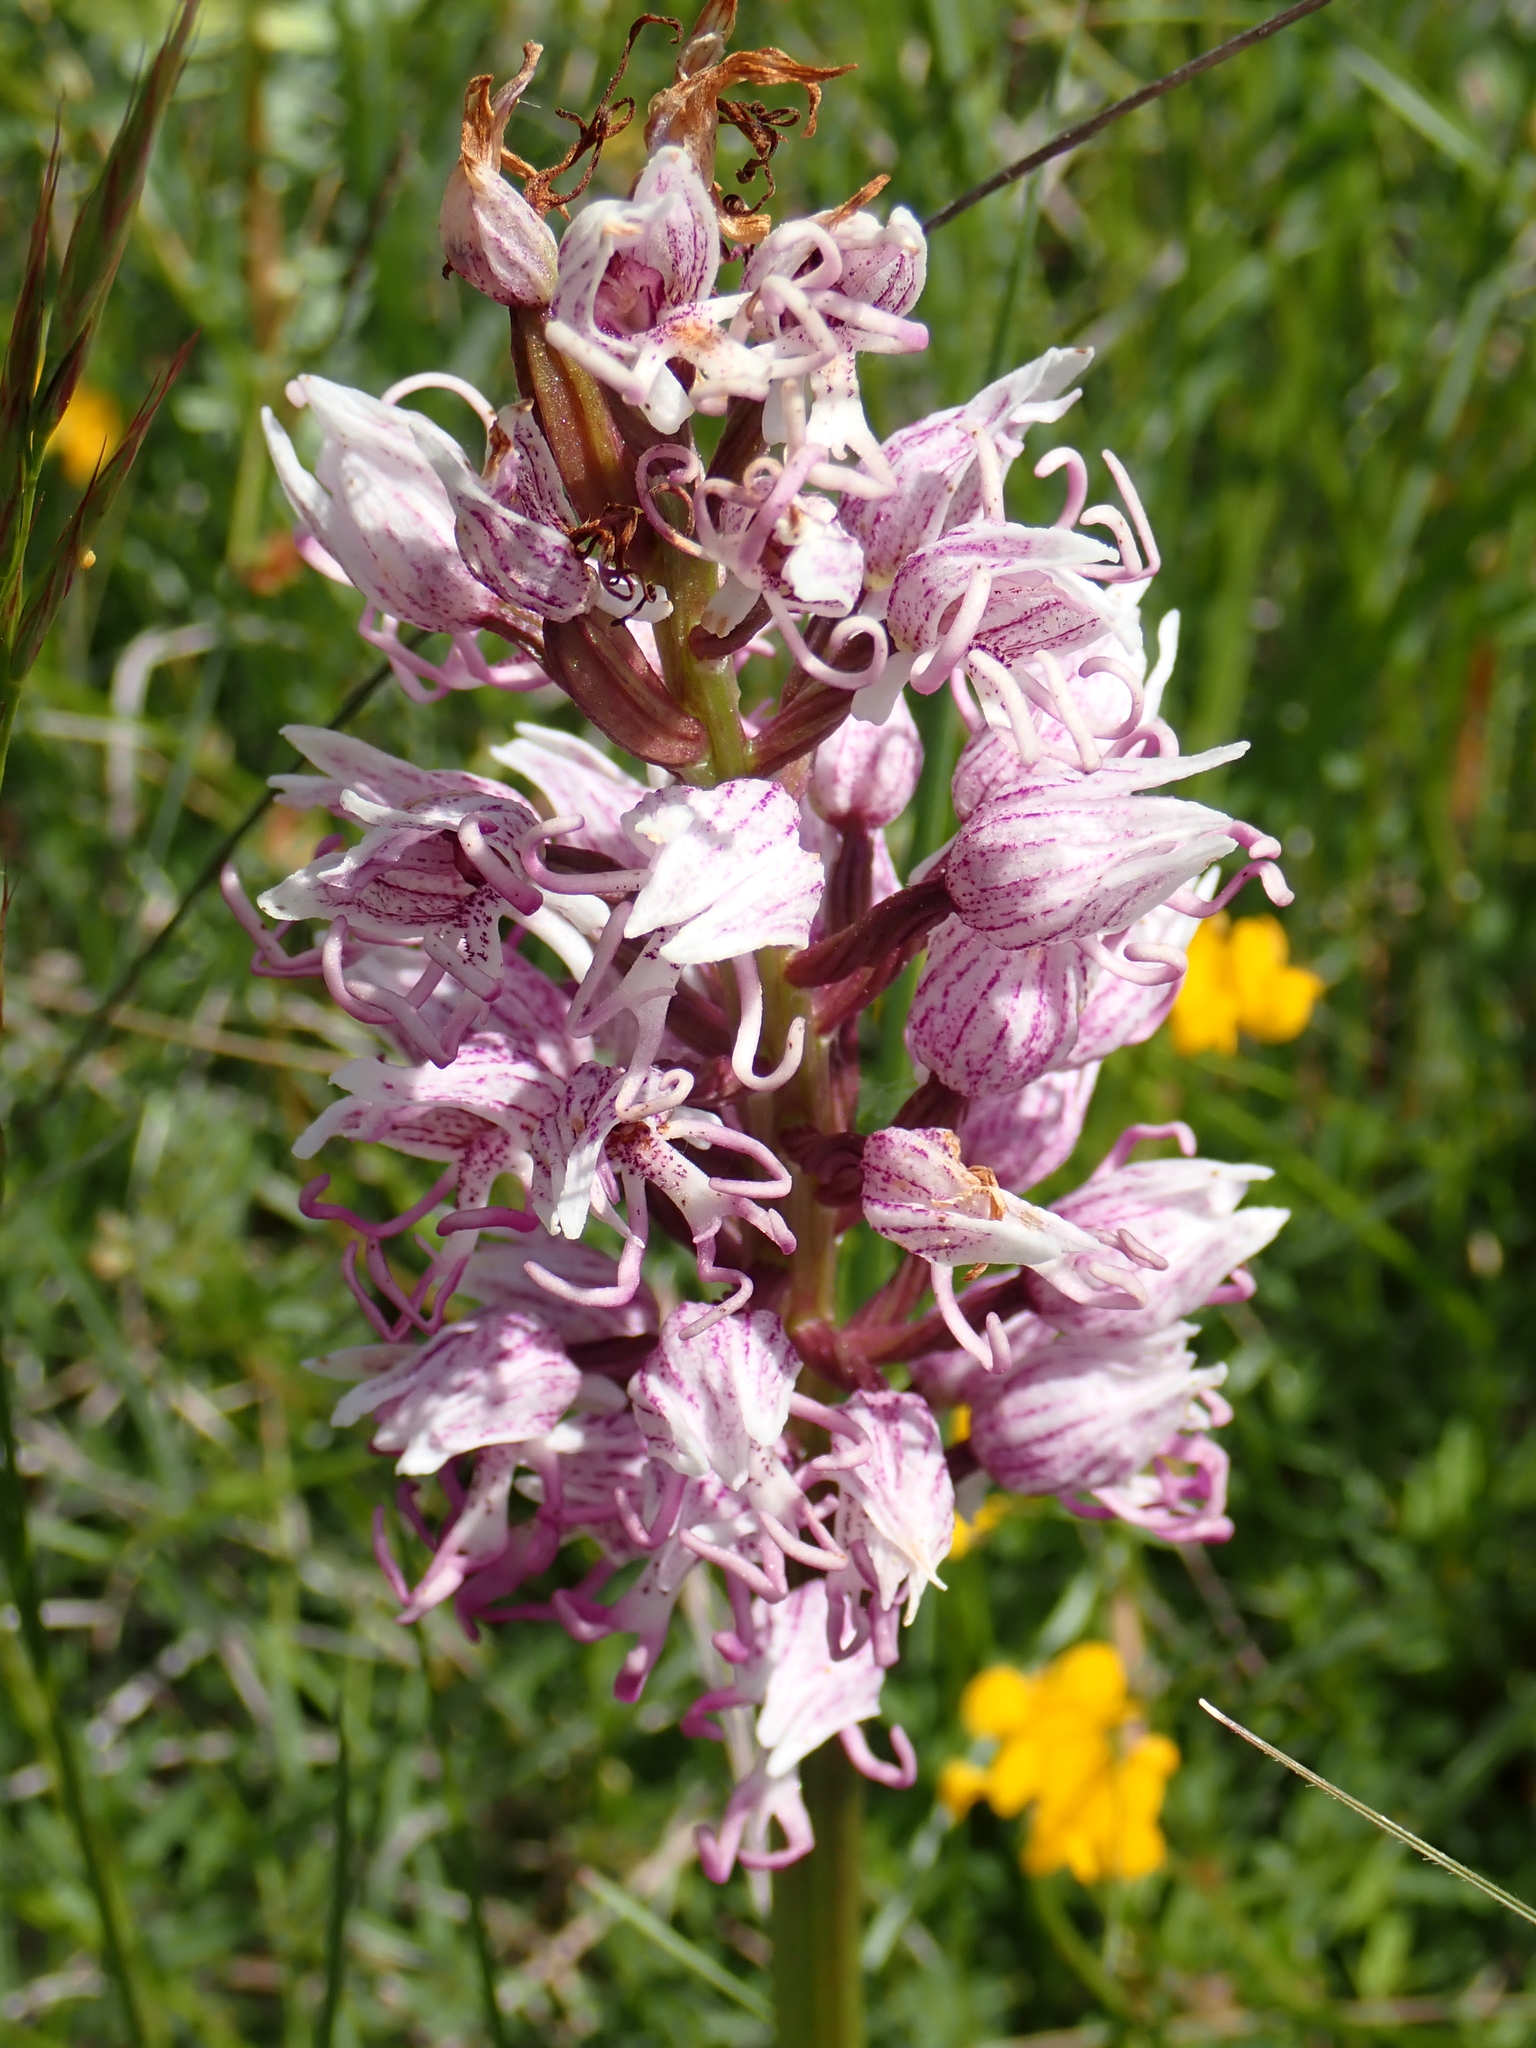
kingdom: Plantae
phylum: Tracheophyta
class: Liliopsida
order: Asparagales
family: Orchidaceae
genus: Orchis
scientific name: Orchis simia
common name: Monkey orchid
